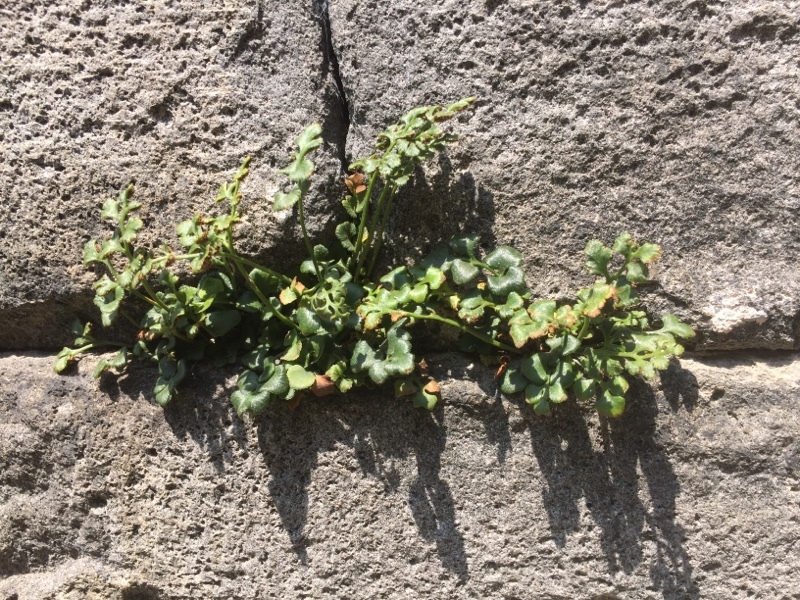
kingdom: Plantae
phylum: Tracheophyta
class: Polypodiopsida
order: Polypodiales
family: Aspleniaceae
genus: Asplenium
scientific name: Asplenium ruta-muraria
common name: Wall-rue
